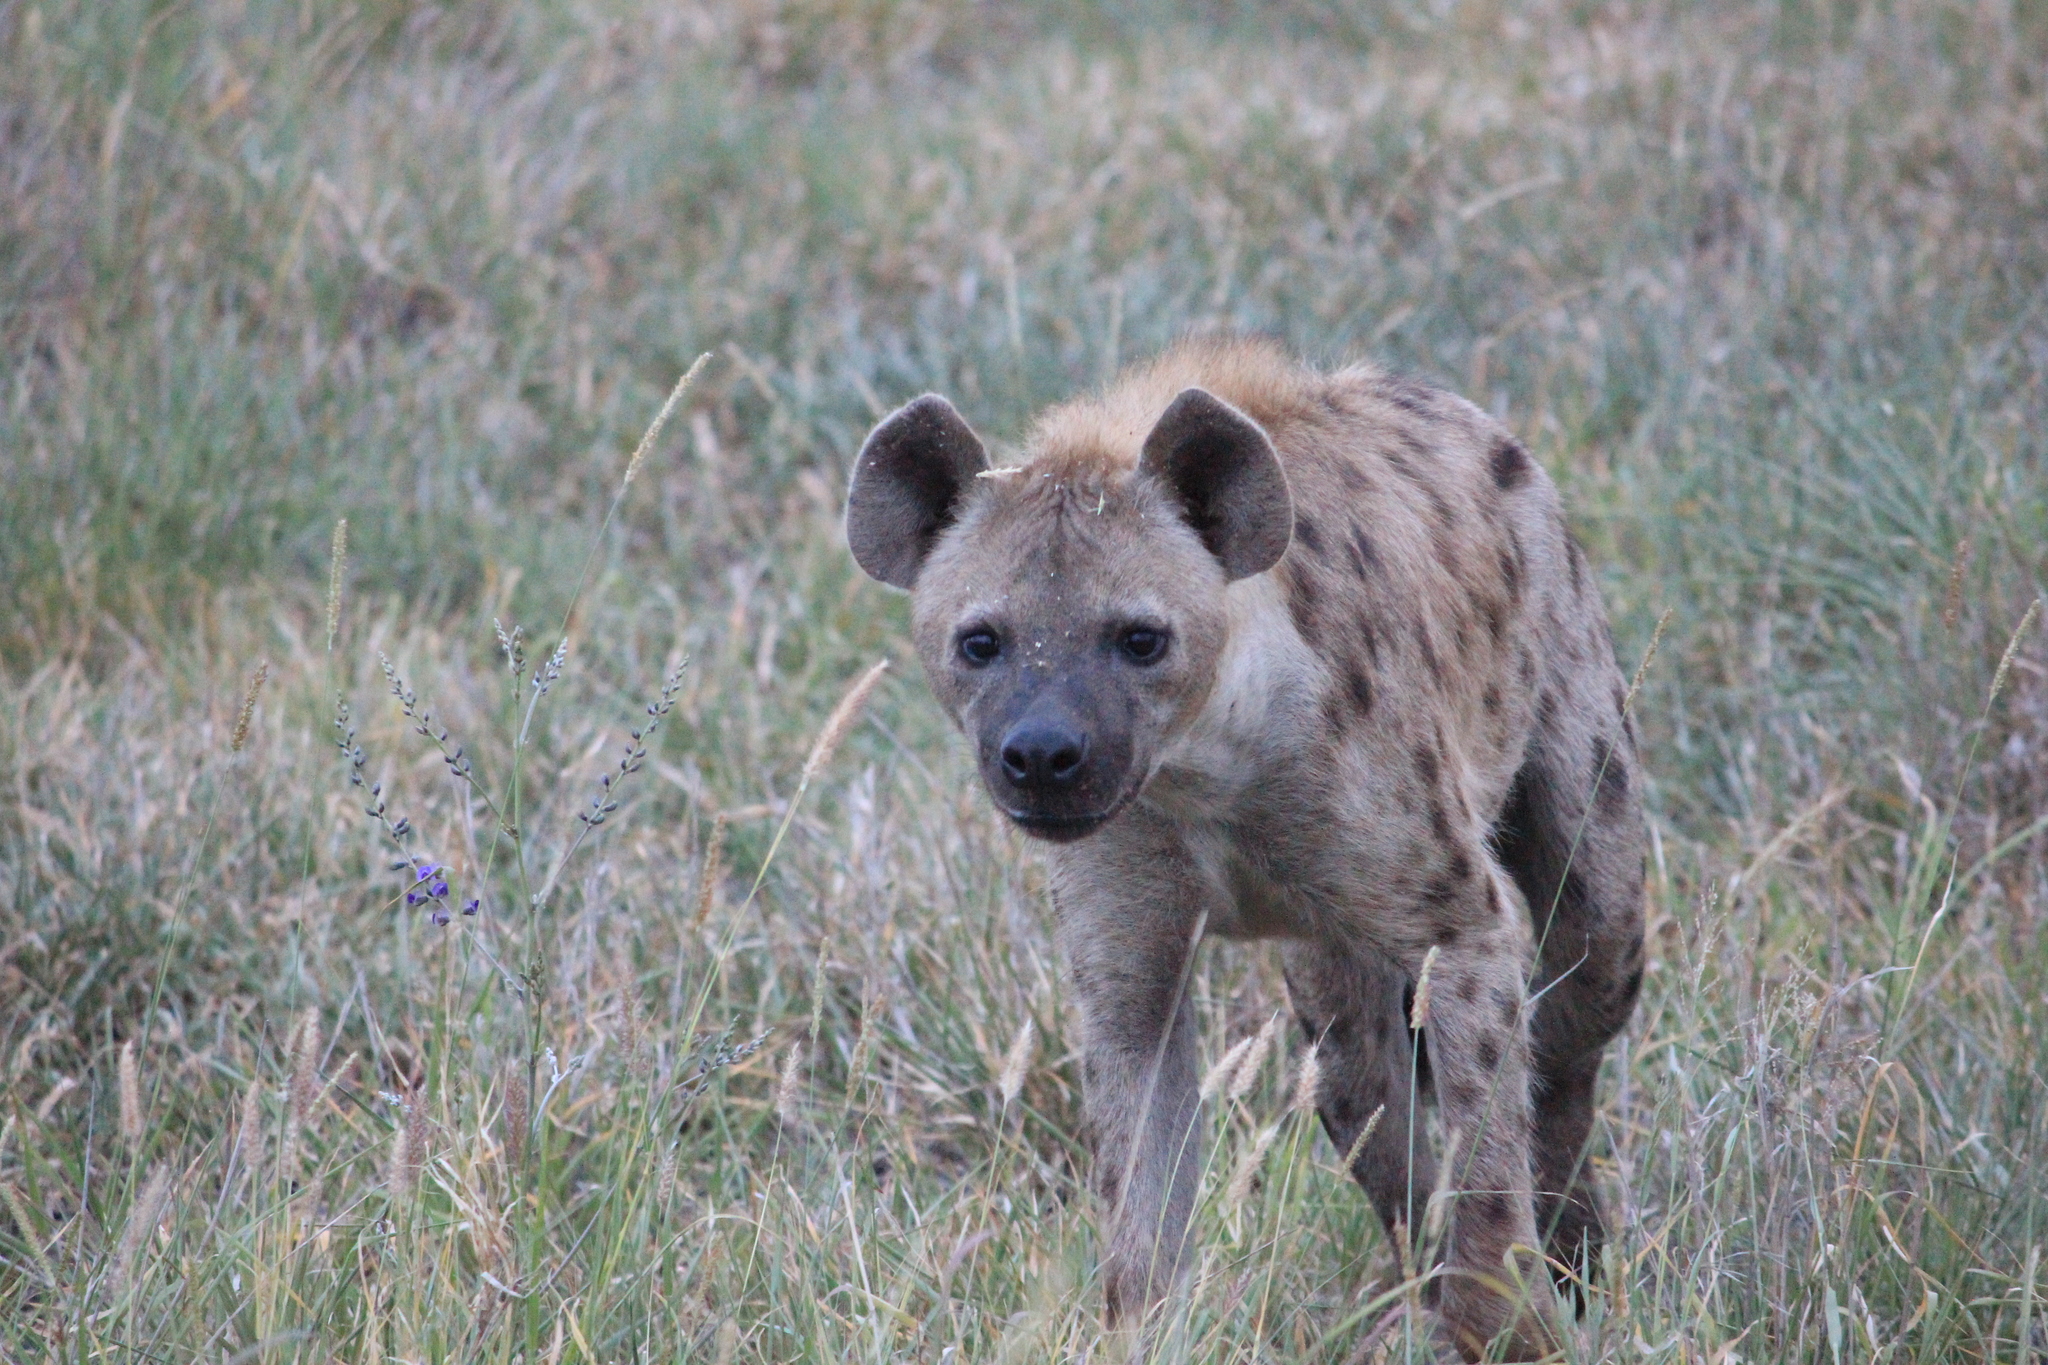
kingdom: Animalia
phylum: Chordata
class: Mammalia
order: Carnivora
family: Hyaenidae
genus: Crocuta
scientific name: Crocuta crocuta
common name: Spotted hyaena
